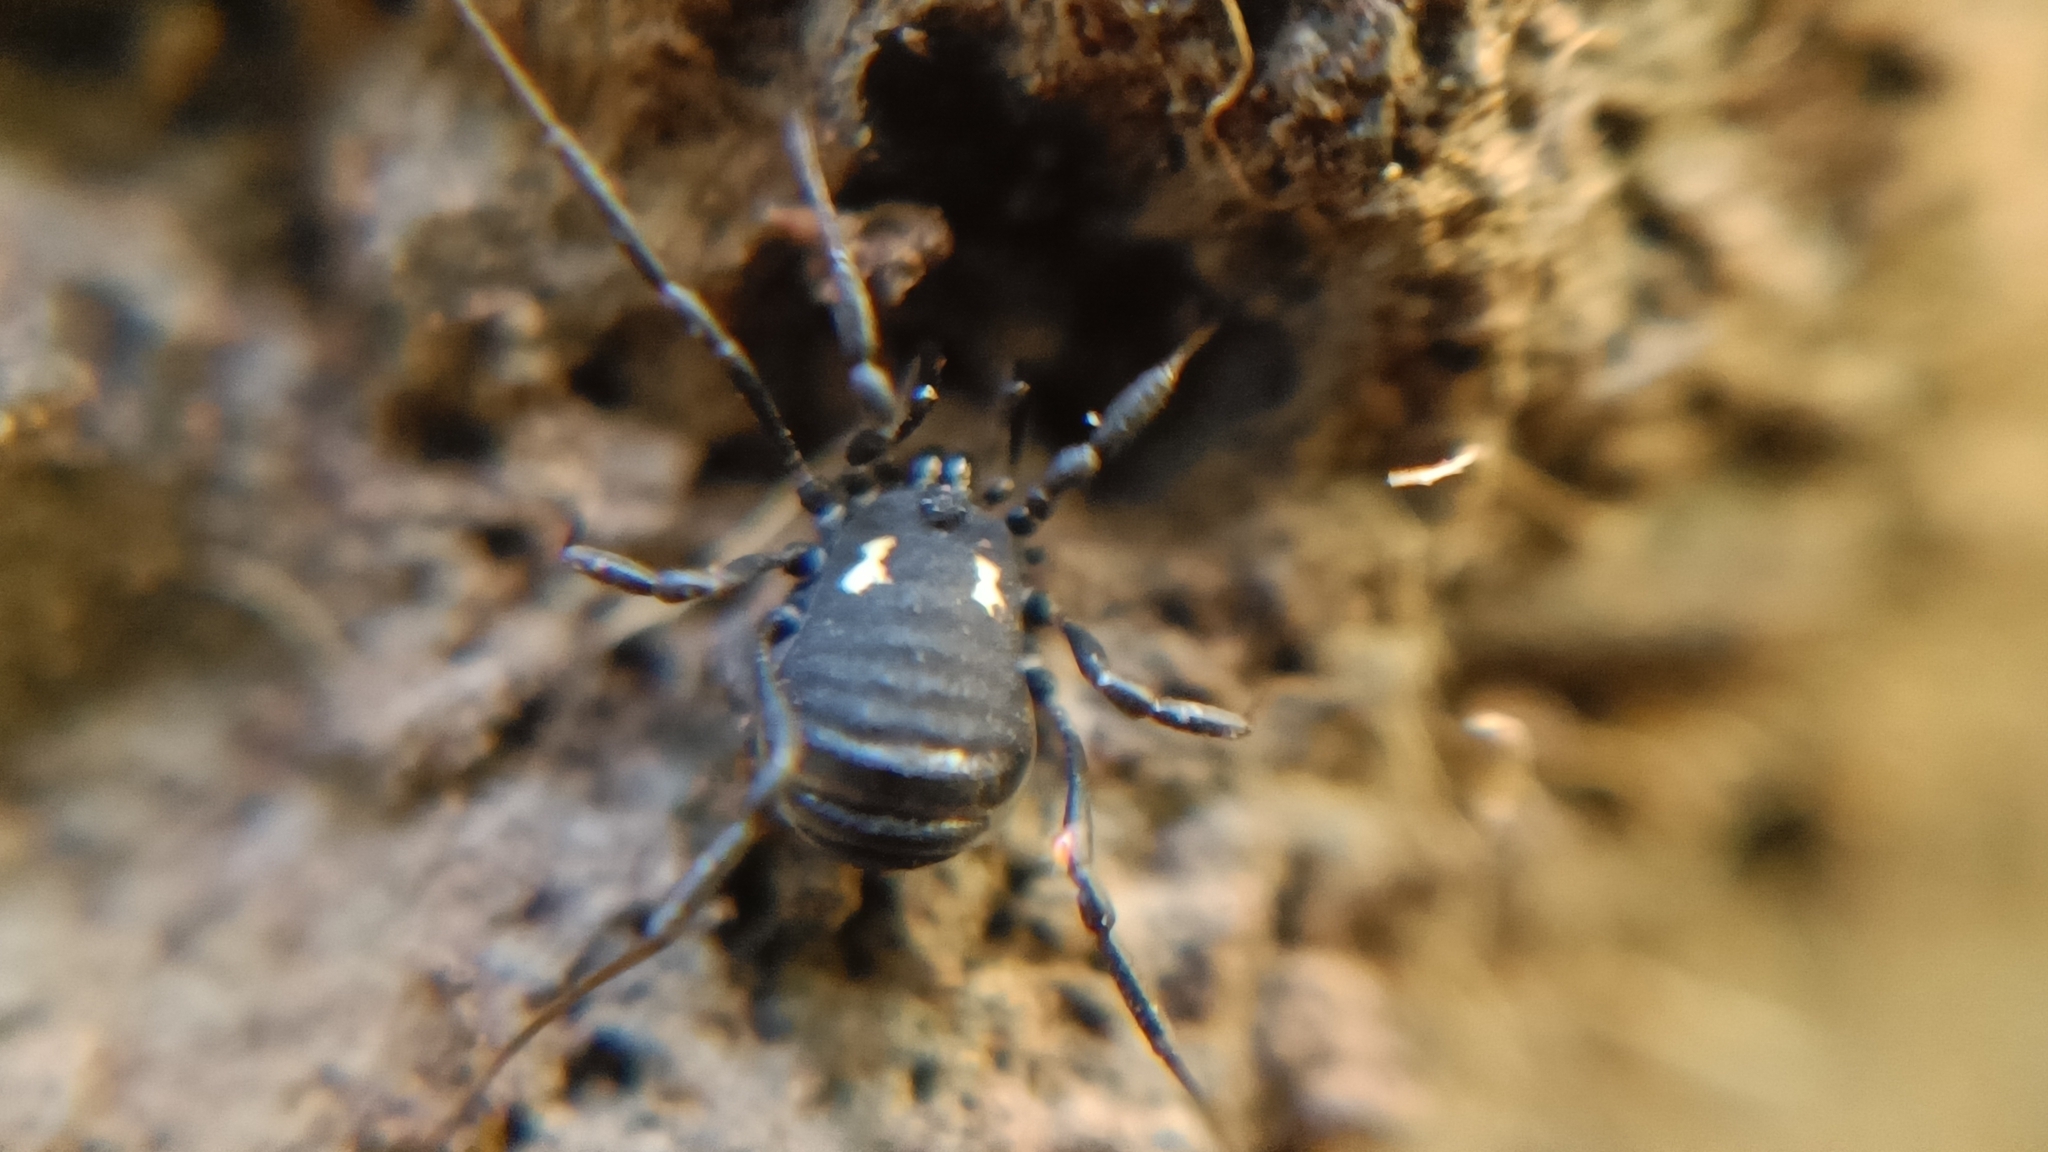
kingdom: Animalia
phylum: Arthropoda
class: Arachnida
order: Opiliones
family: Nemastomatidae
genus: Nemastoma
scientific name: Nemastoma bimaculatum
